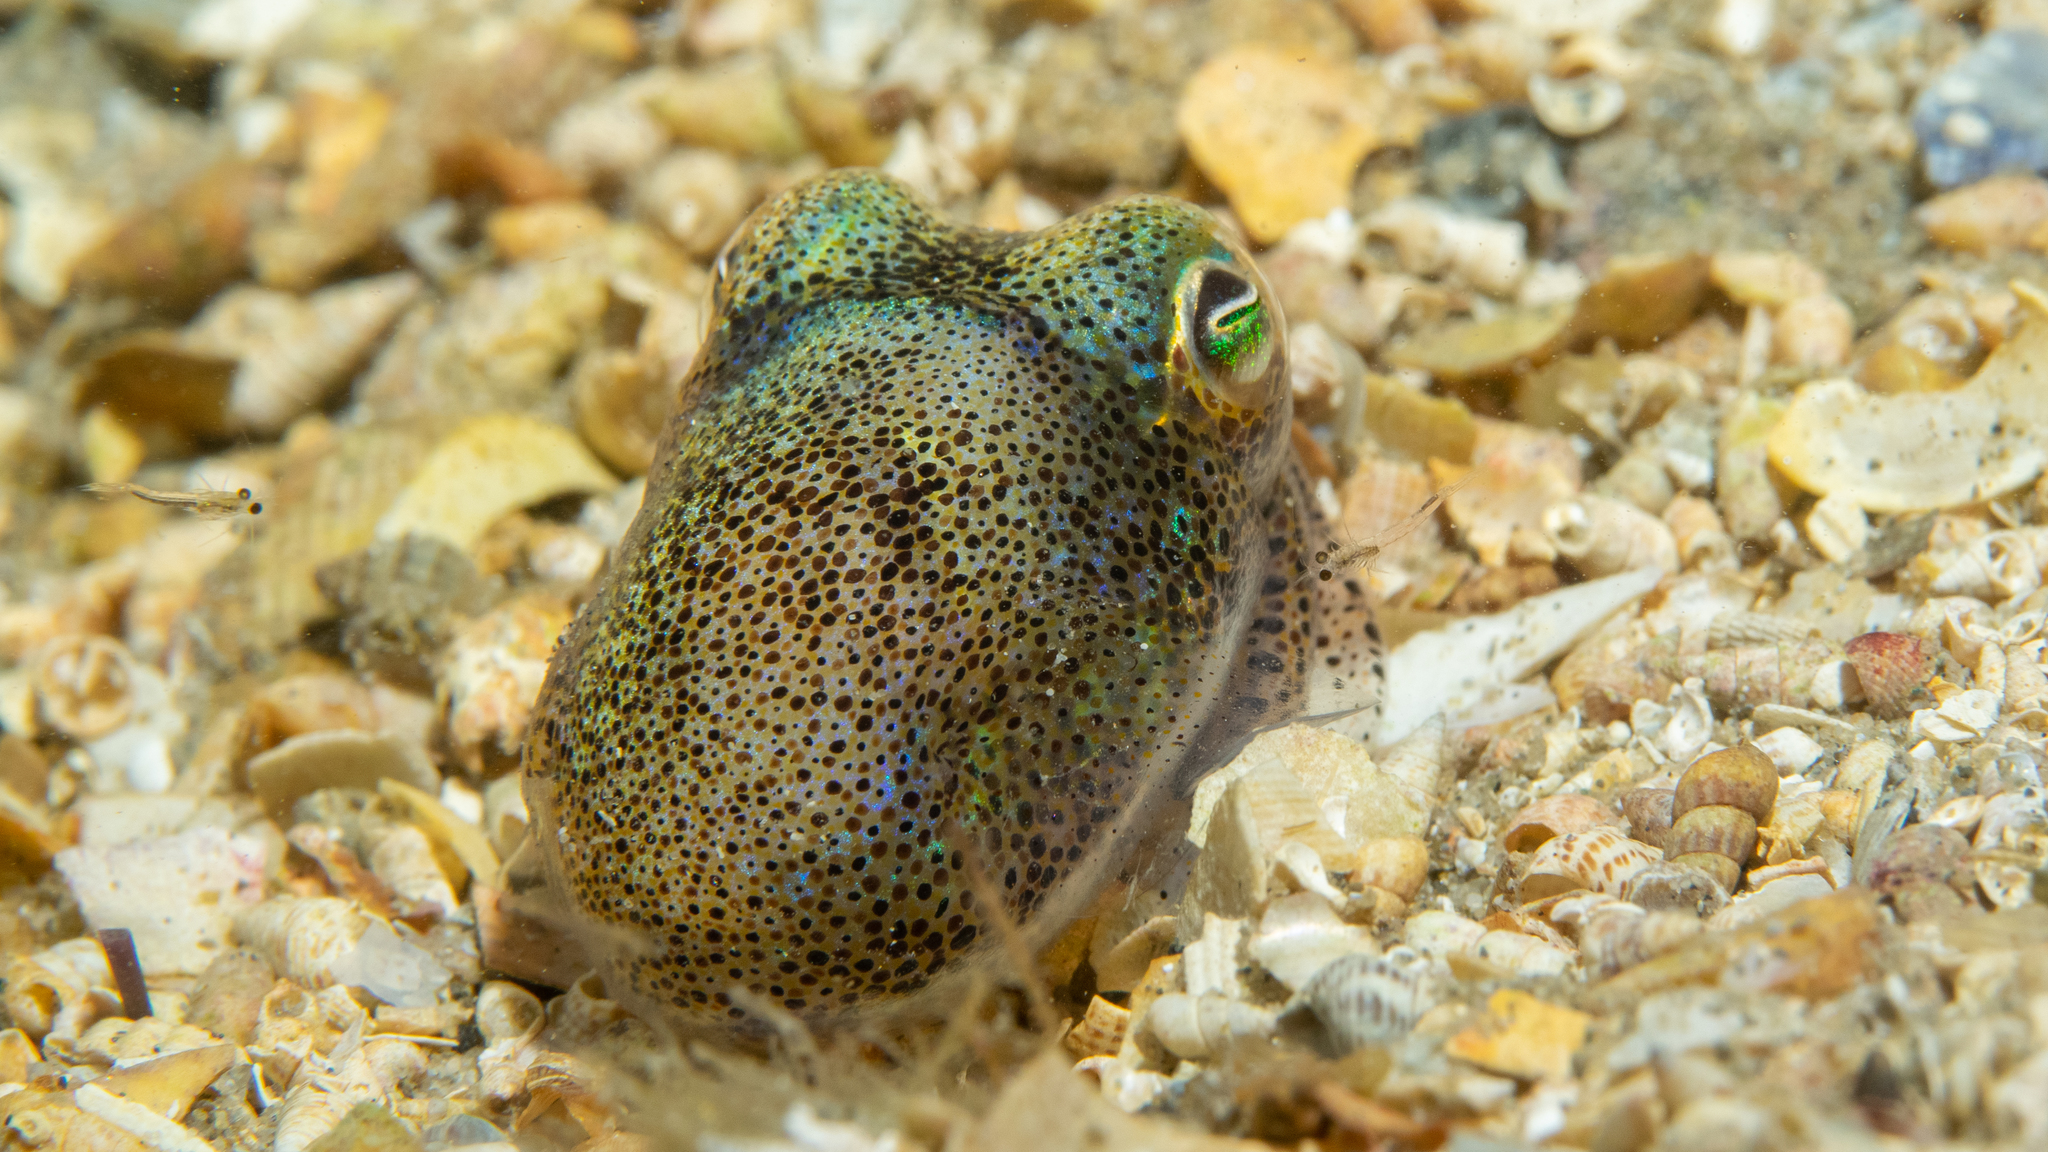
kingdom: Animalia
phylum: Mollusca
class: Cephalopoda
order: Sepiida
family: Sepiolidae
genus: Euprymna
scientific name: Euprymna tasmanica
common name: Southern bobtail squid
